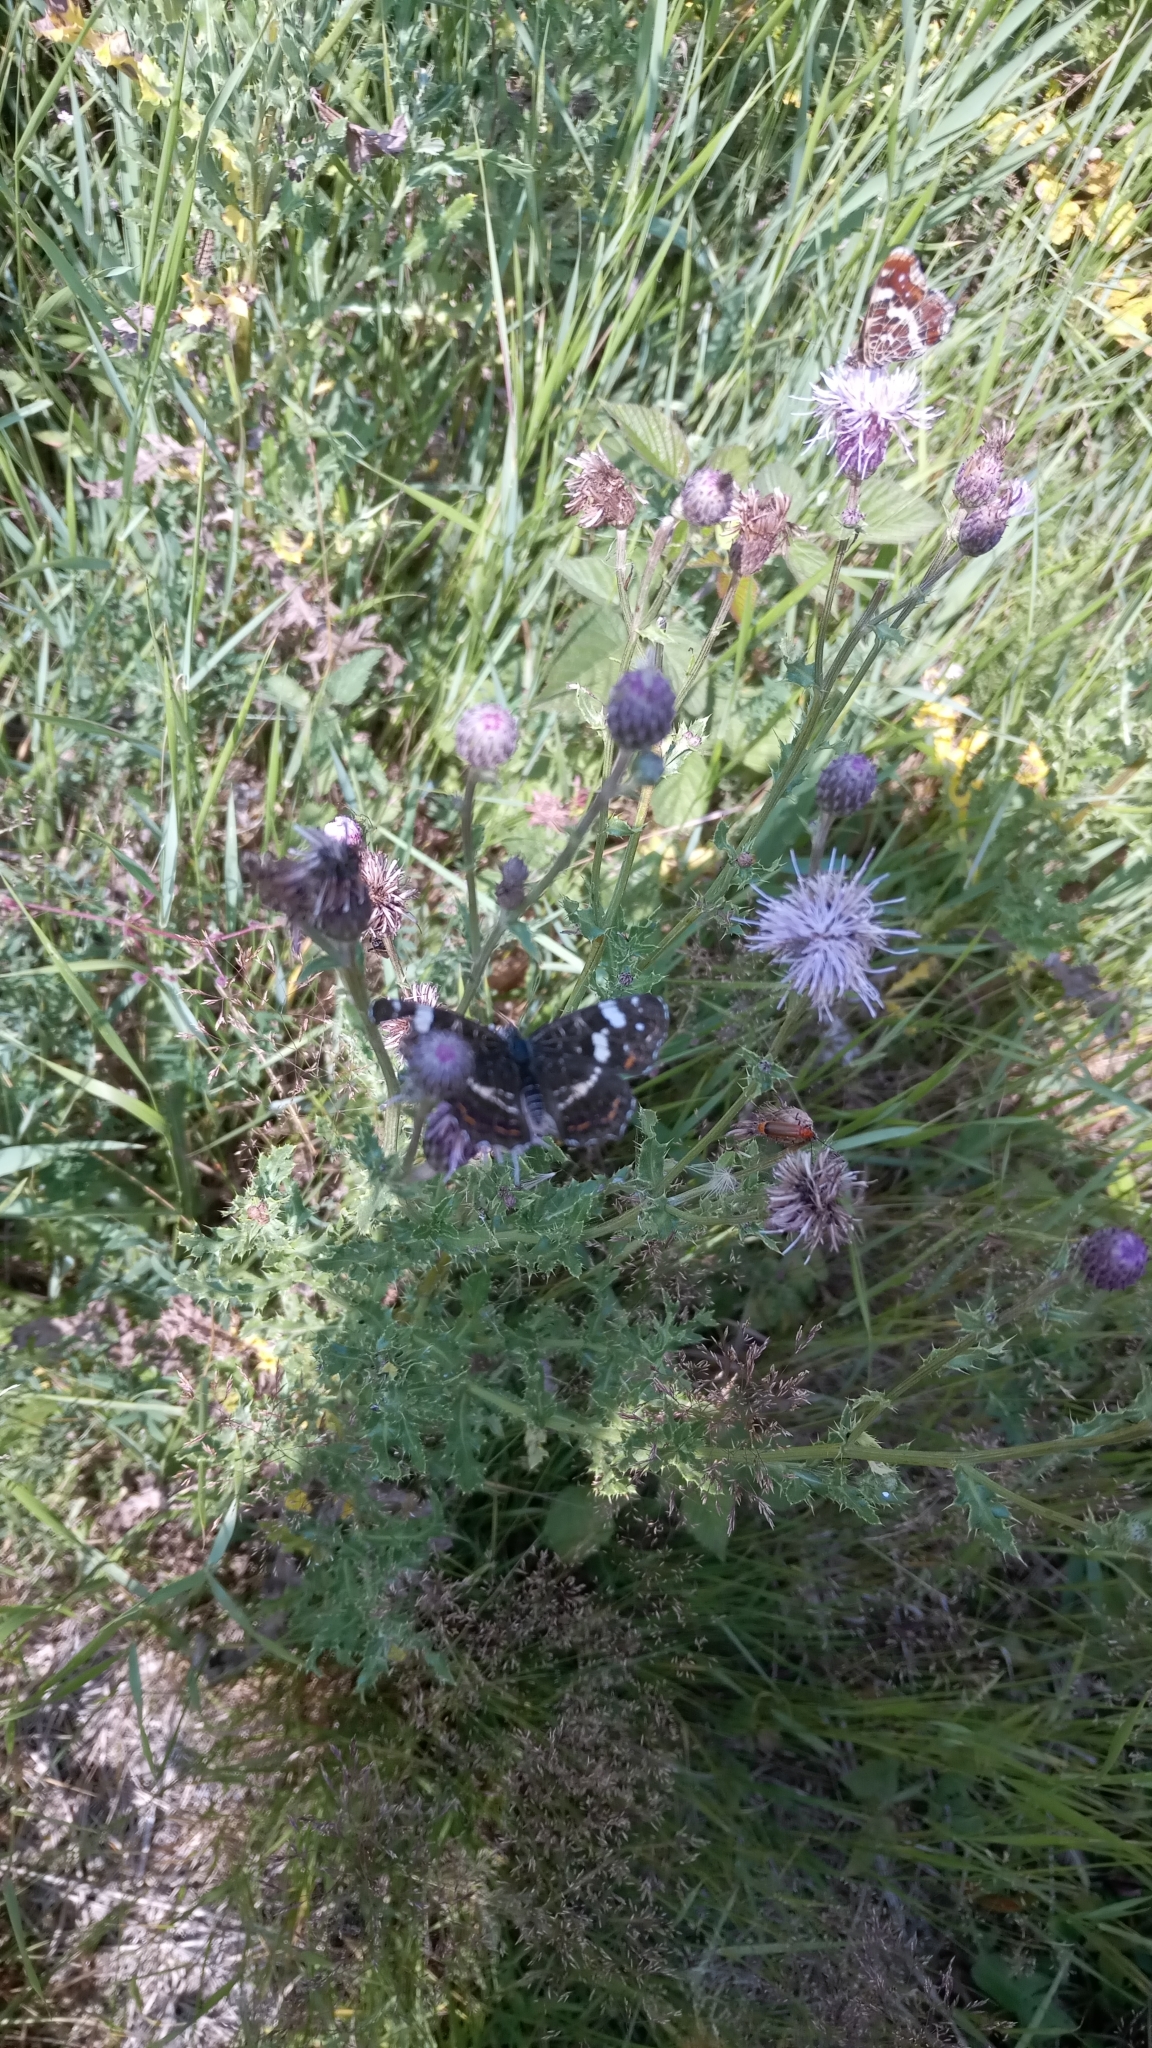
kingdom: Animalia
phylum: Arthropoda
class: Insecta
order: Lepidoptera
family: Nymphalidae
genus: Araschnia
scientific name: Araschnia levana
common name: Map butterfly
